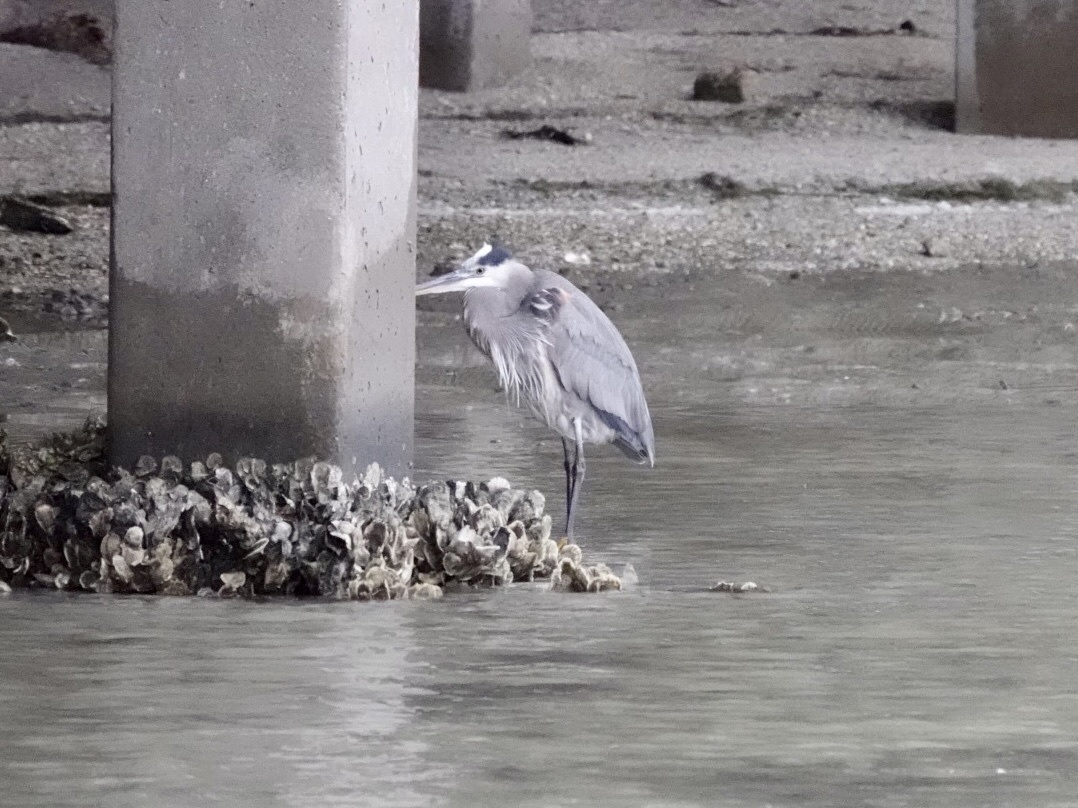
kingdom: Animalia
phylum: Chordata
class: Aves
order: Pelecaniformes
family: Ardeidae
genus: Ardea
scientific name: Ardea herodias
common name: Great blue heron
